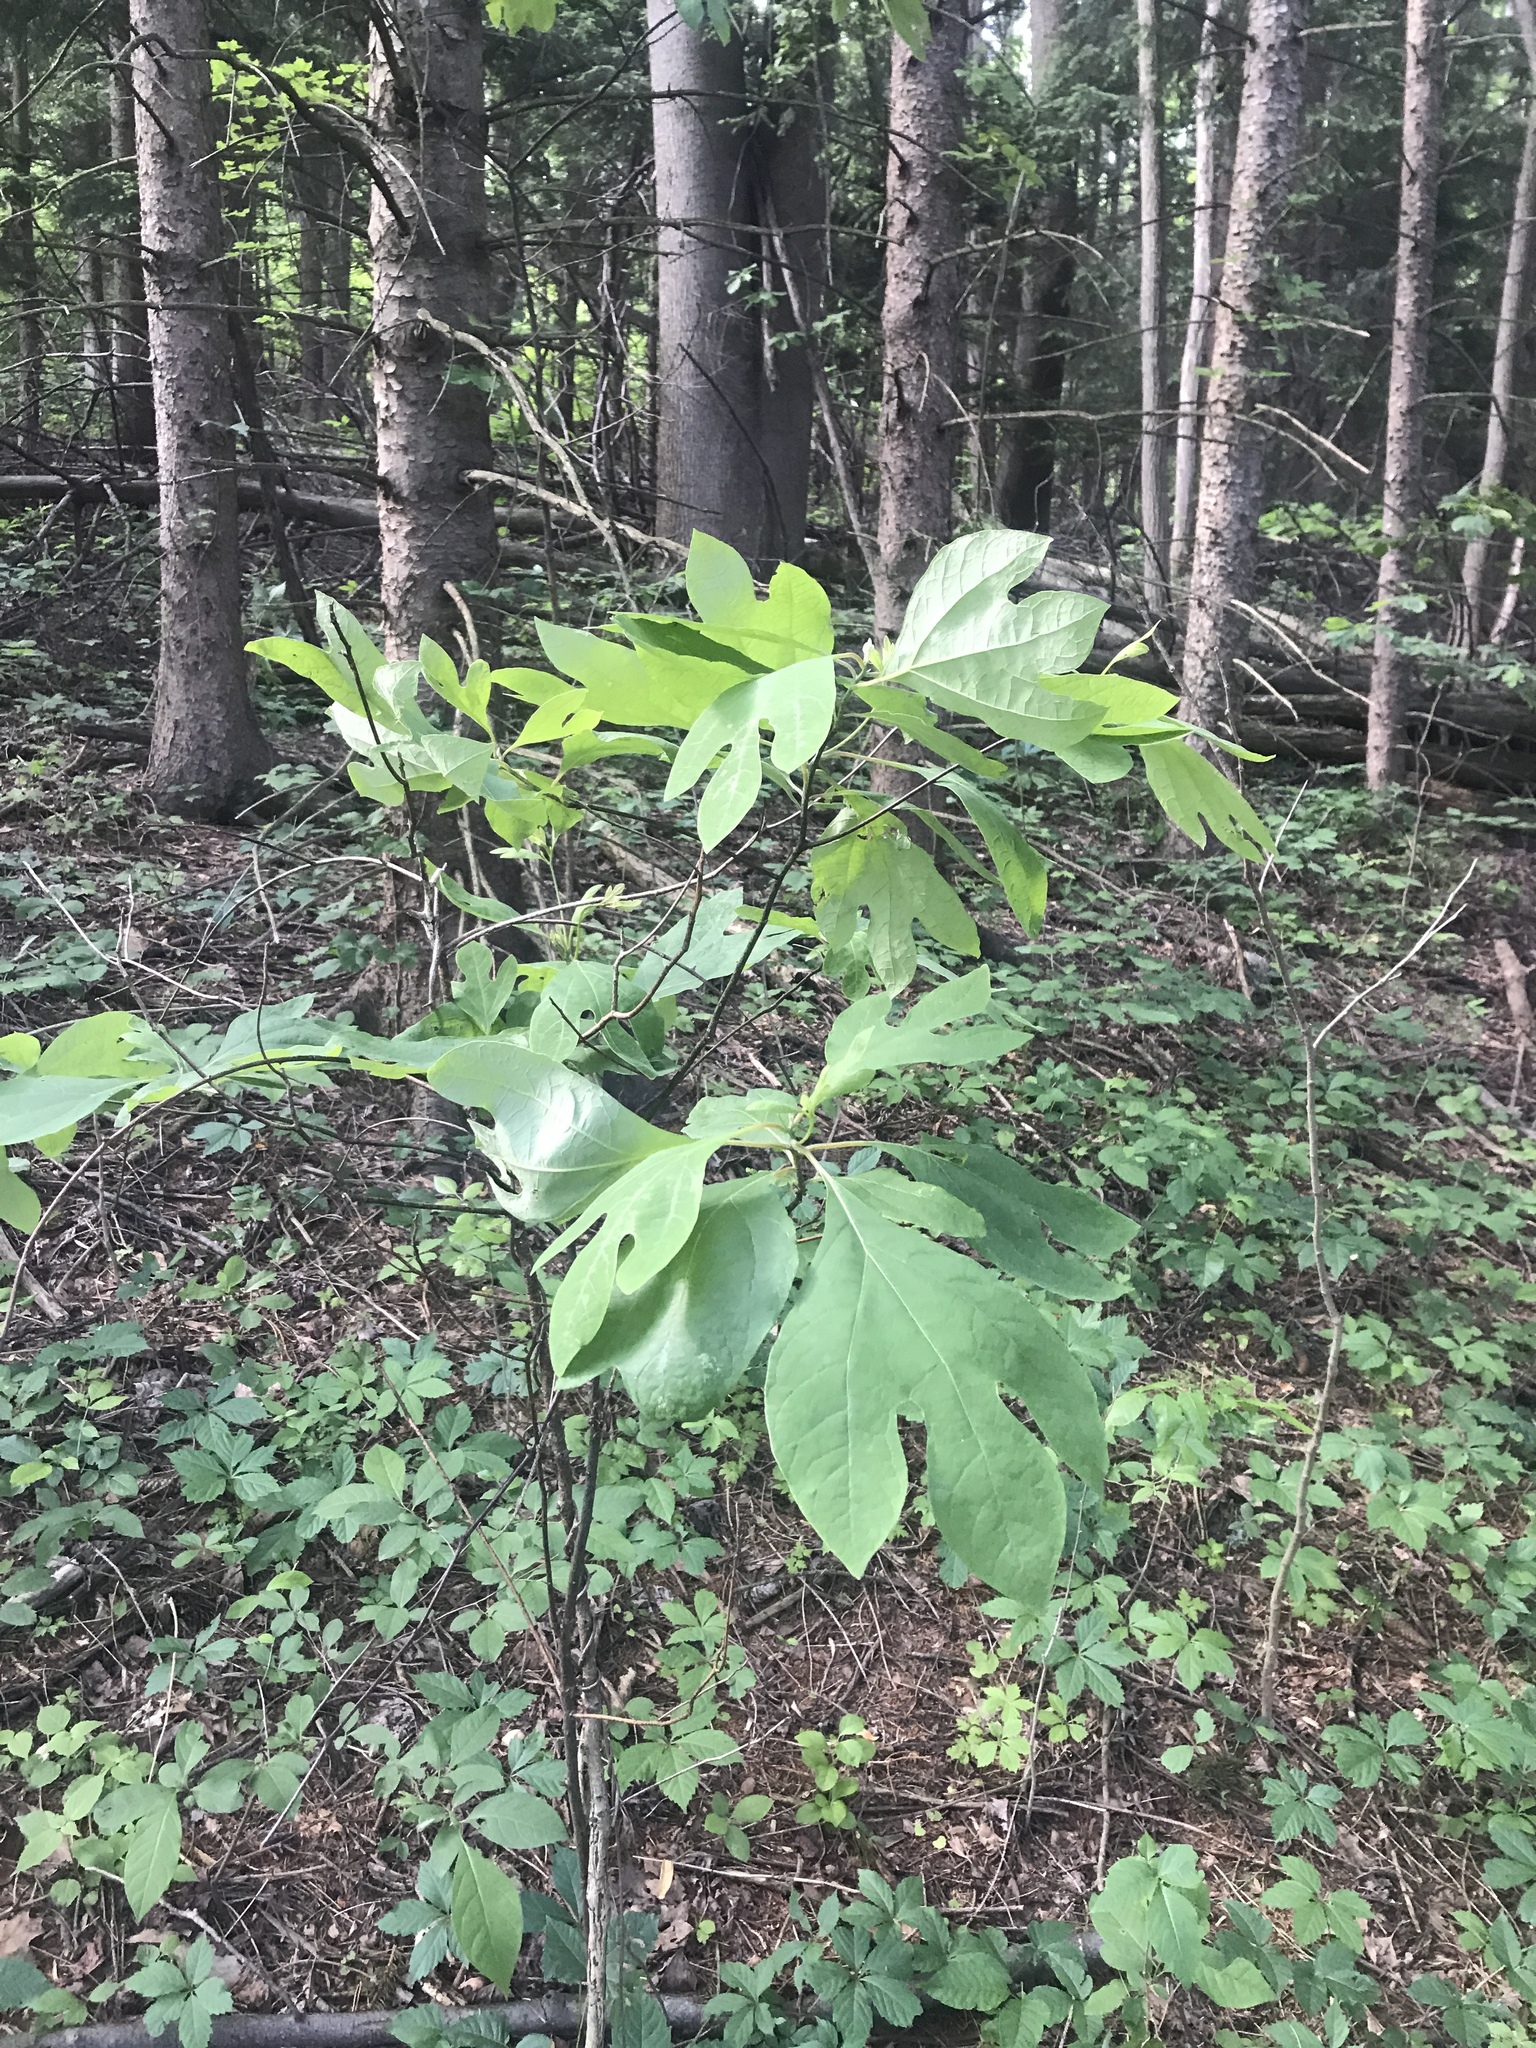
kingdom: Plantae
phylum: Tracheophyta
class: Magnoliopsida
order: Laurales
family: Lauraceae
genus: Sassafras
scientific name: Sassafras albidum
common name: Sassafras
